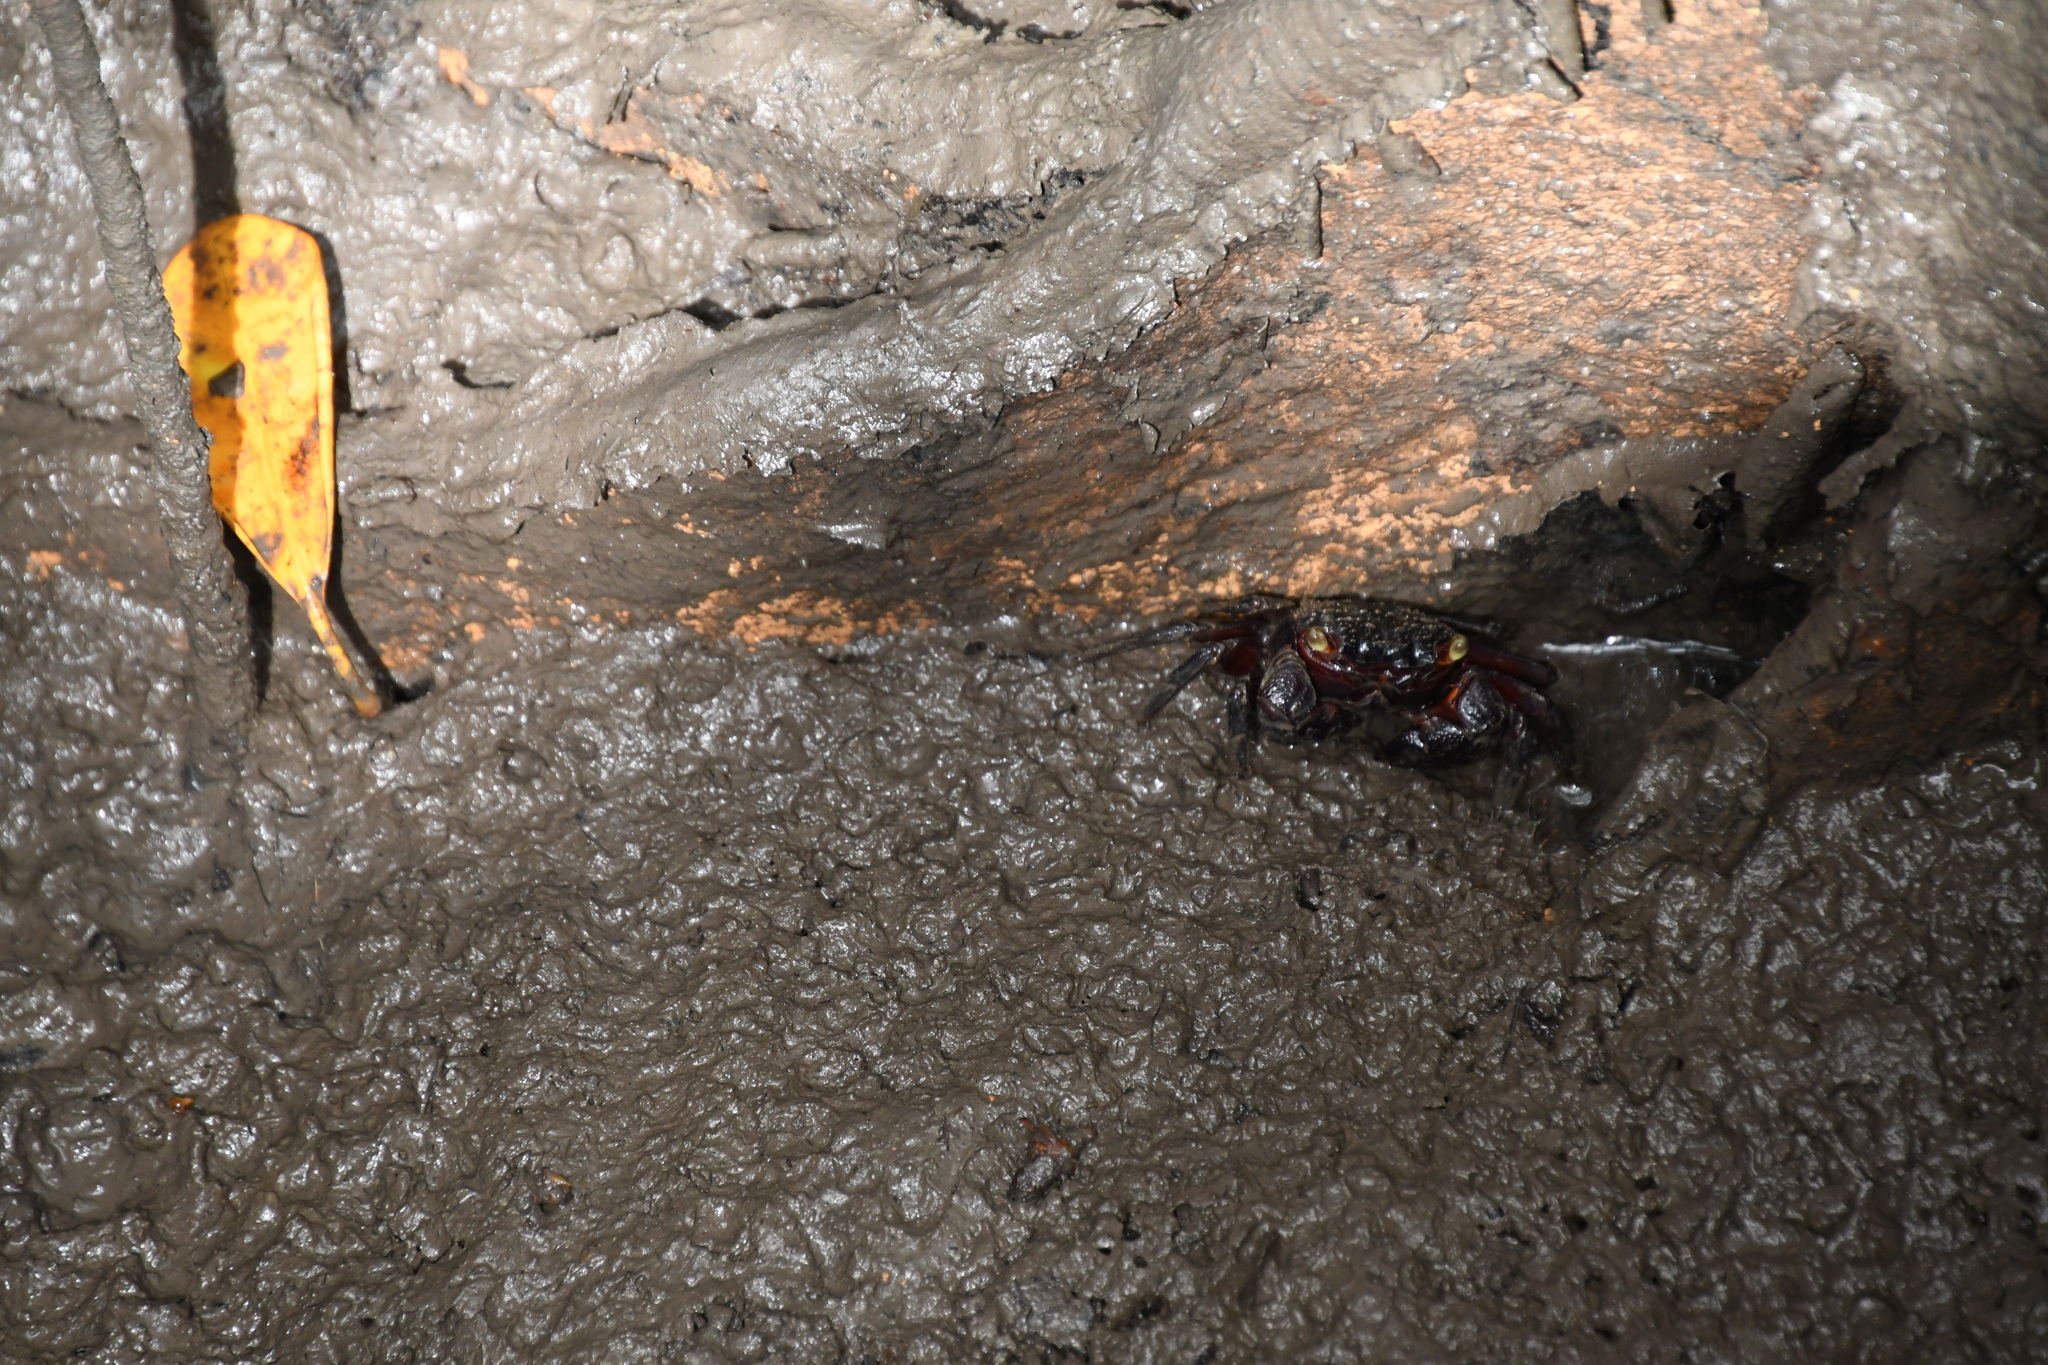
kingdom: Animalia
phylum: Arthropoda
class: Malacostraca
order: Decapoda
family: Sesarmidae
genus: Parasesarma
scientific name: Parasesarma messa
